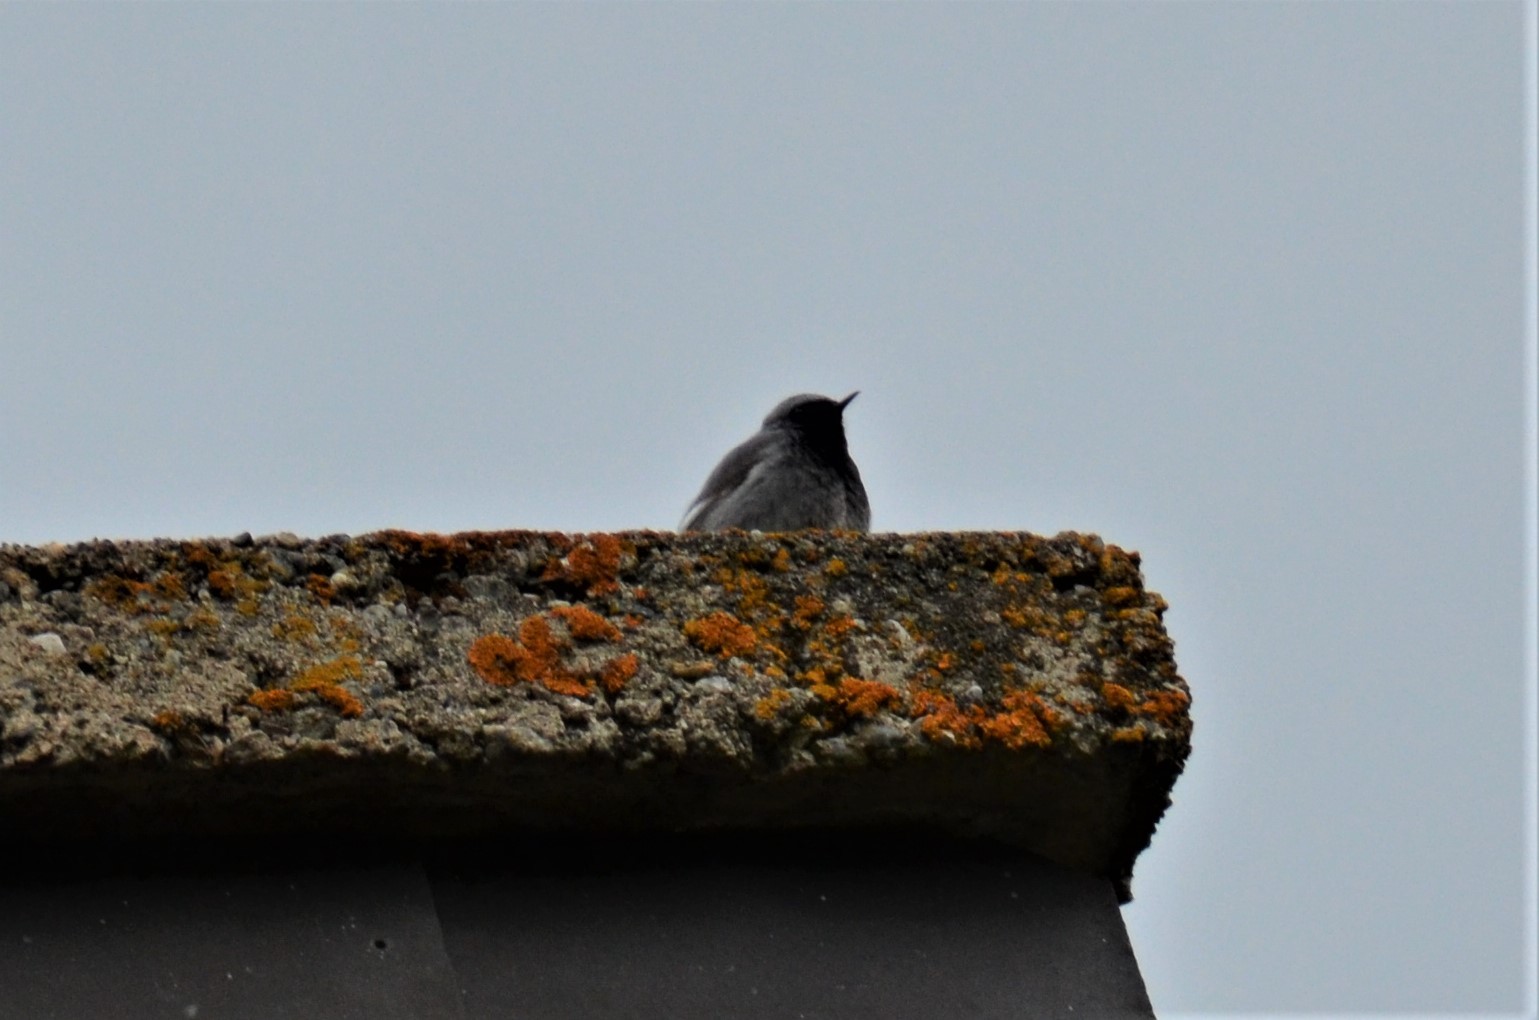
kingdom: Animalia
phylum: Chordata
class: Aves
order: Passeriformes
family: Muscicapidae
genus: Phoenicurus
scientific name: Phoenicurus ochruros
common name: Black redstart
